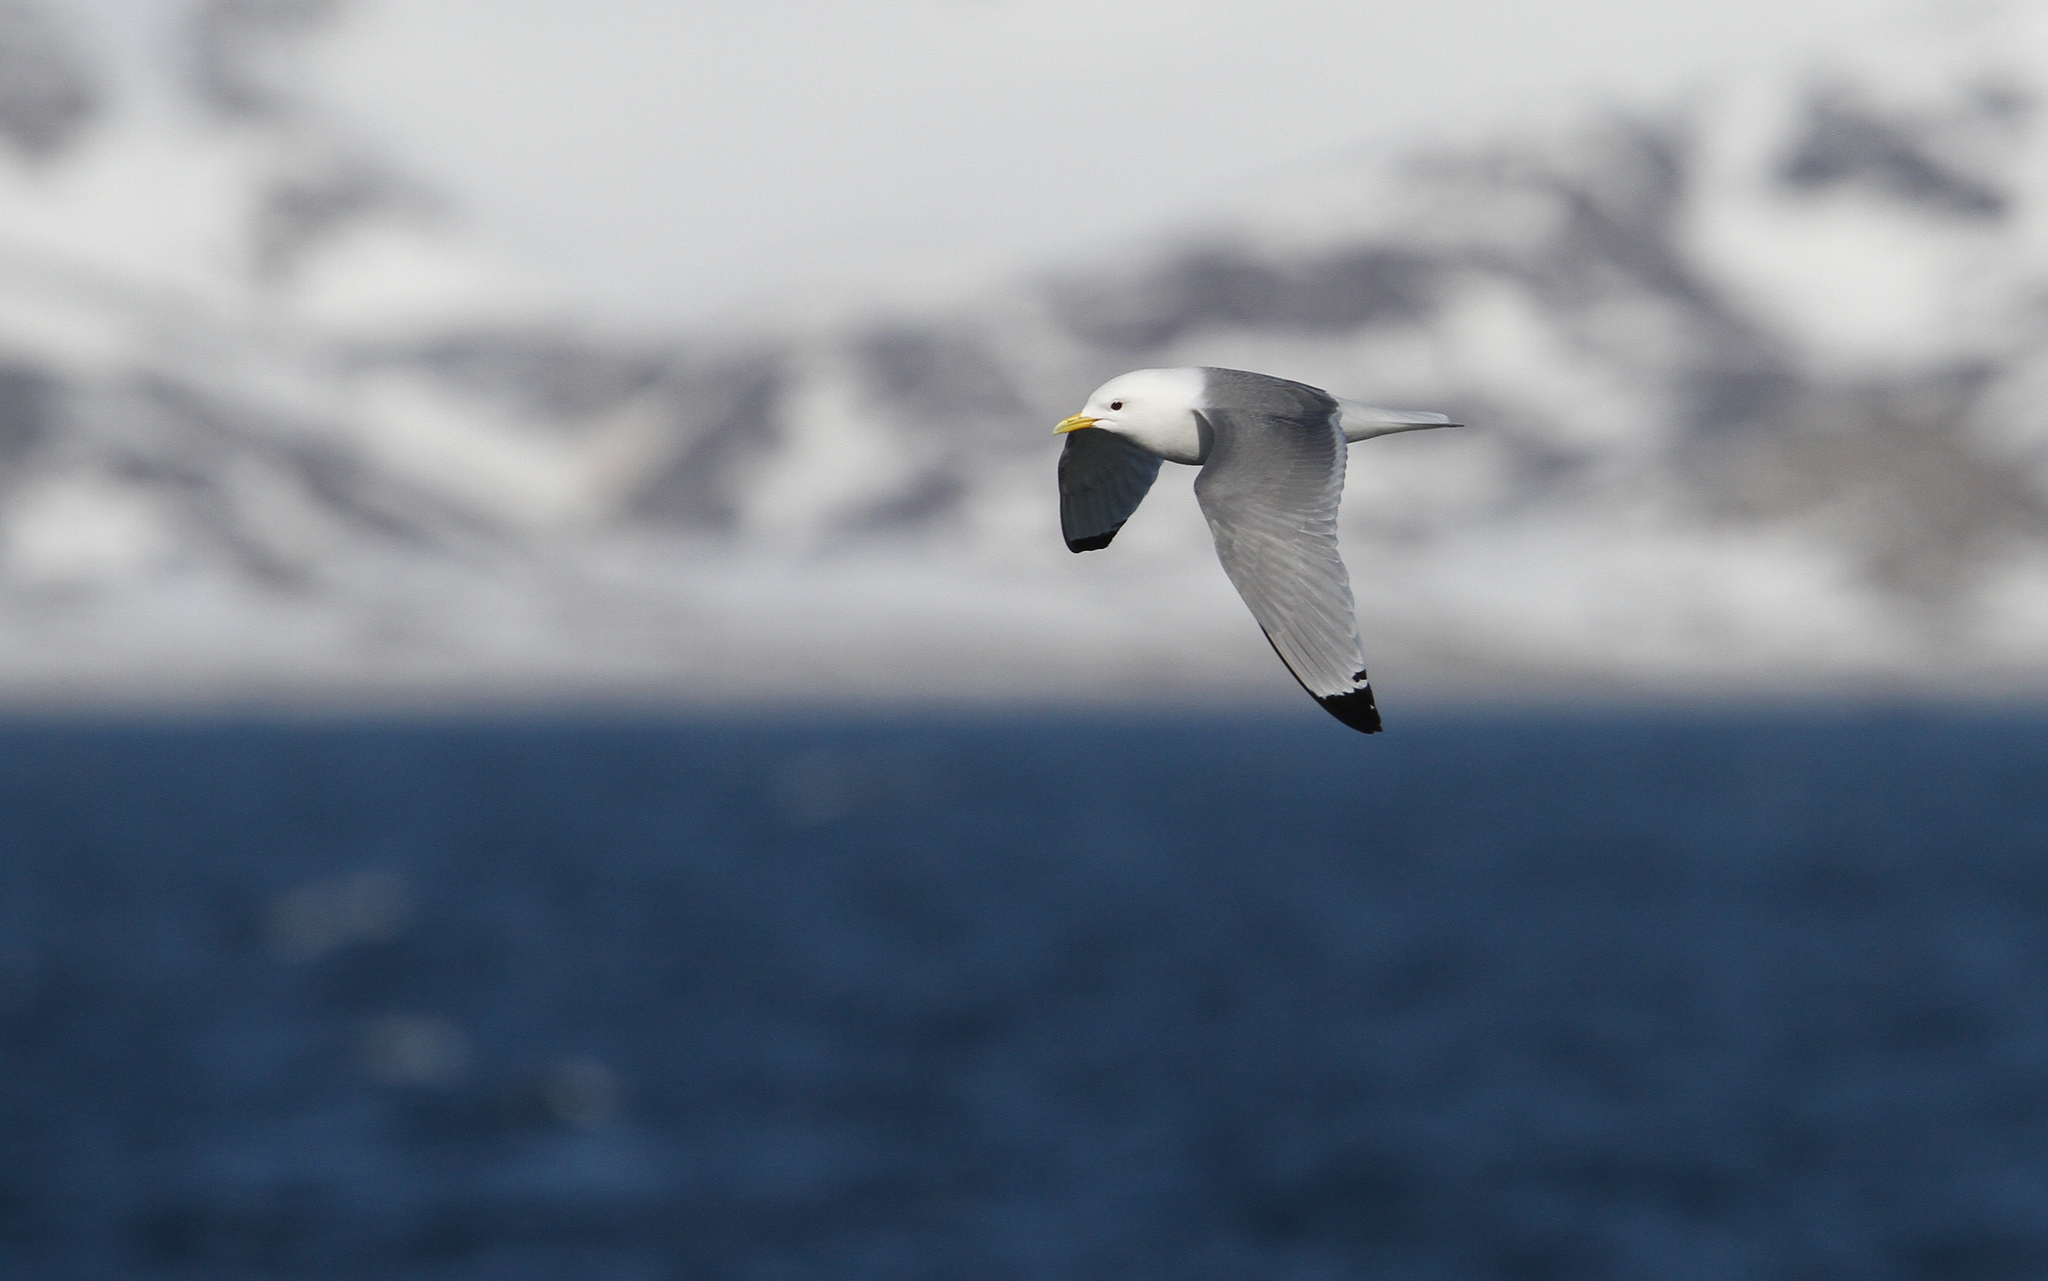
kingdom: Animalia
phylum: Chordata
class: Aves
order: Charadriiformes
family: Laridae
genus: Rissa
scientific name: Rissa tridactyla
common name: Black-legged kittiwake
